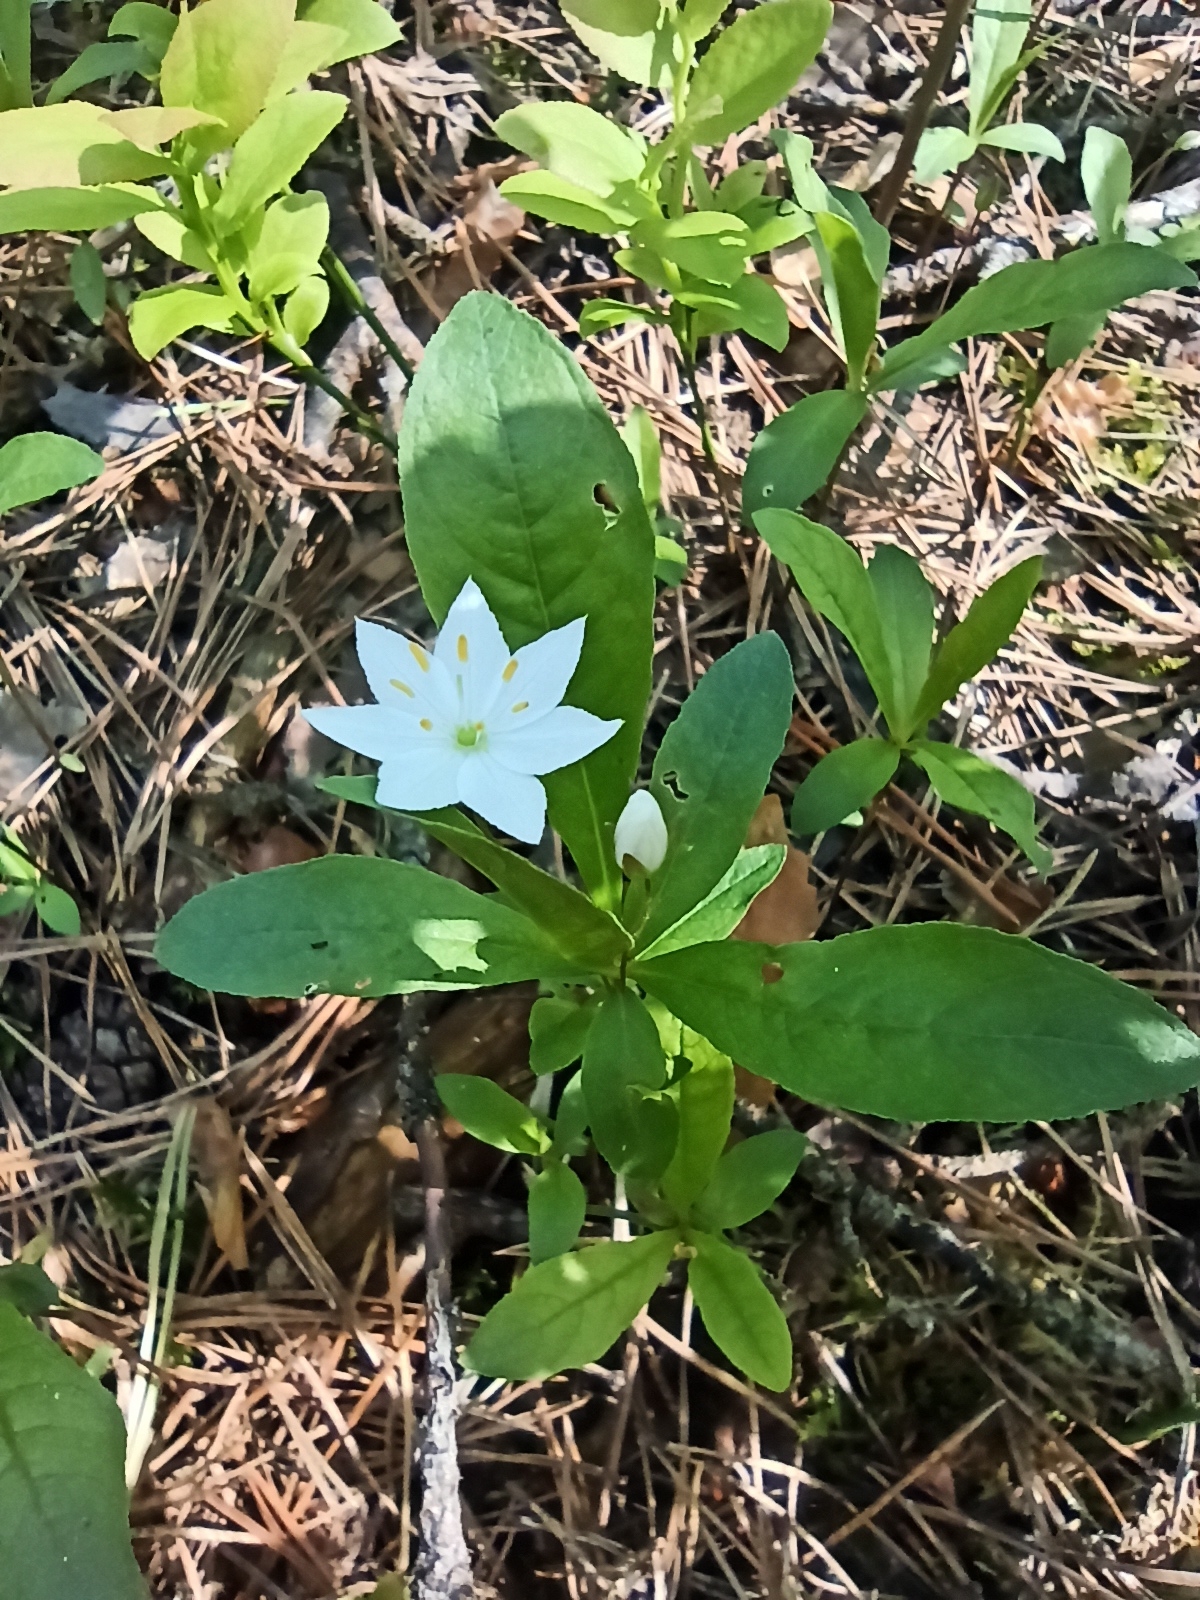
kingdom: Plantae
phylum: Tracheophyta
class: Magnoliopsida
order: Ericales
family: Primulaceae
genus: Lysimachia
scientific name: Lysimachia europaea
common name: Arctic starflower
